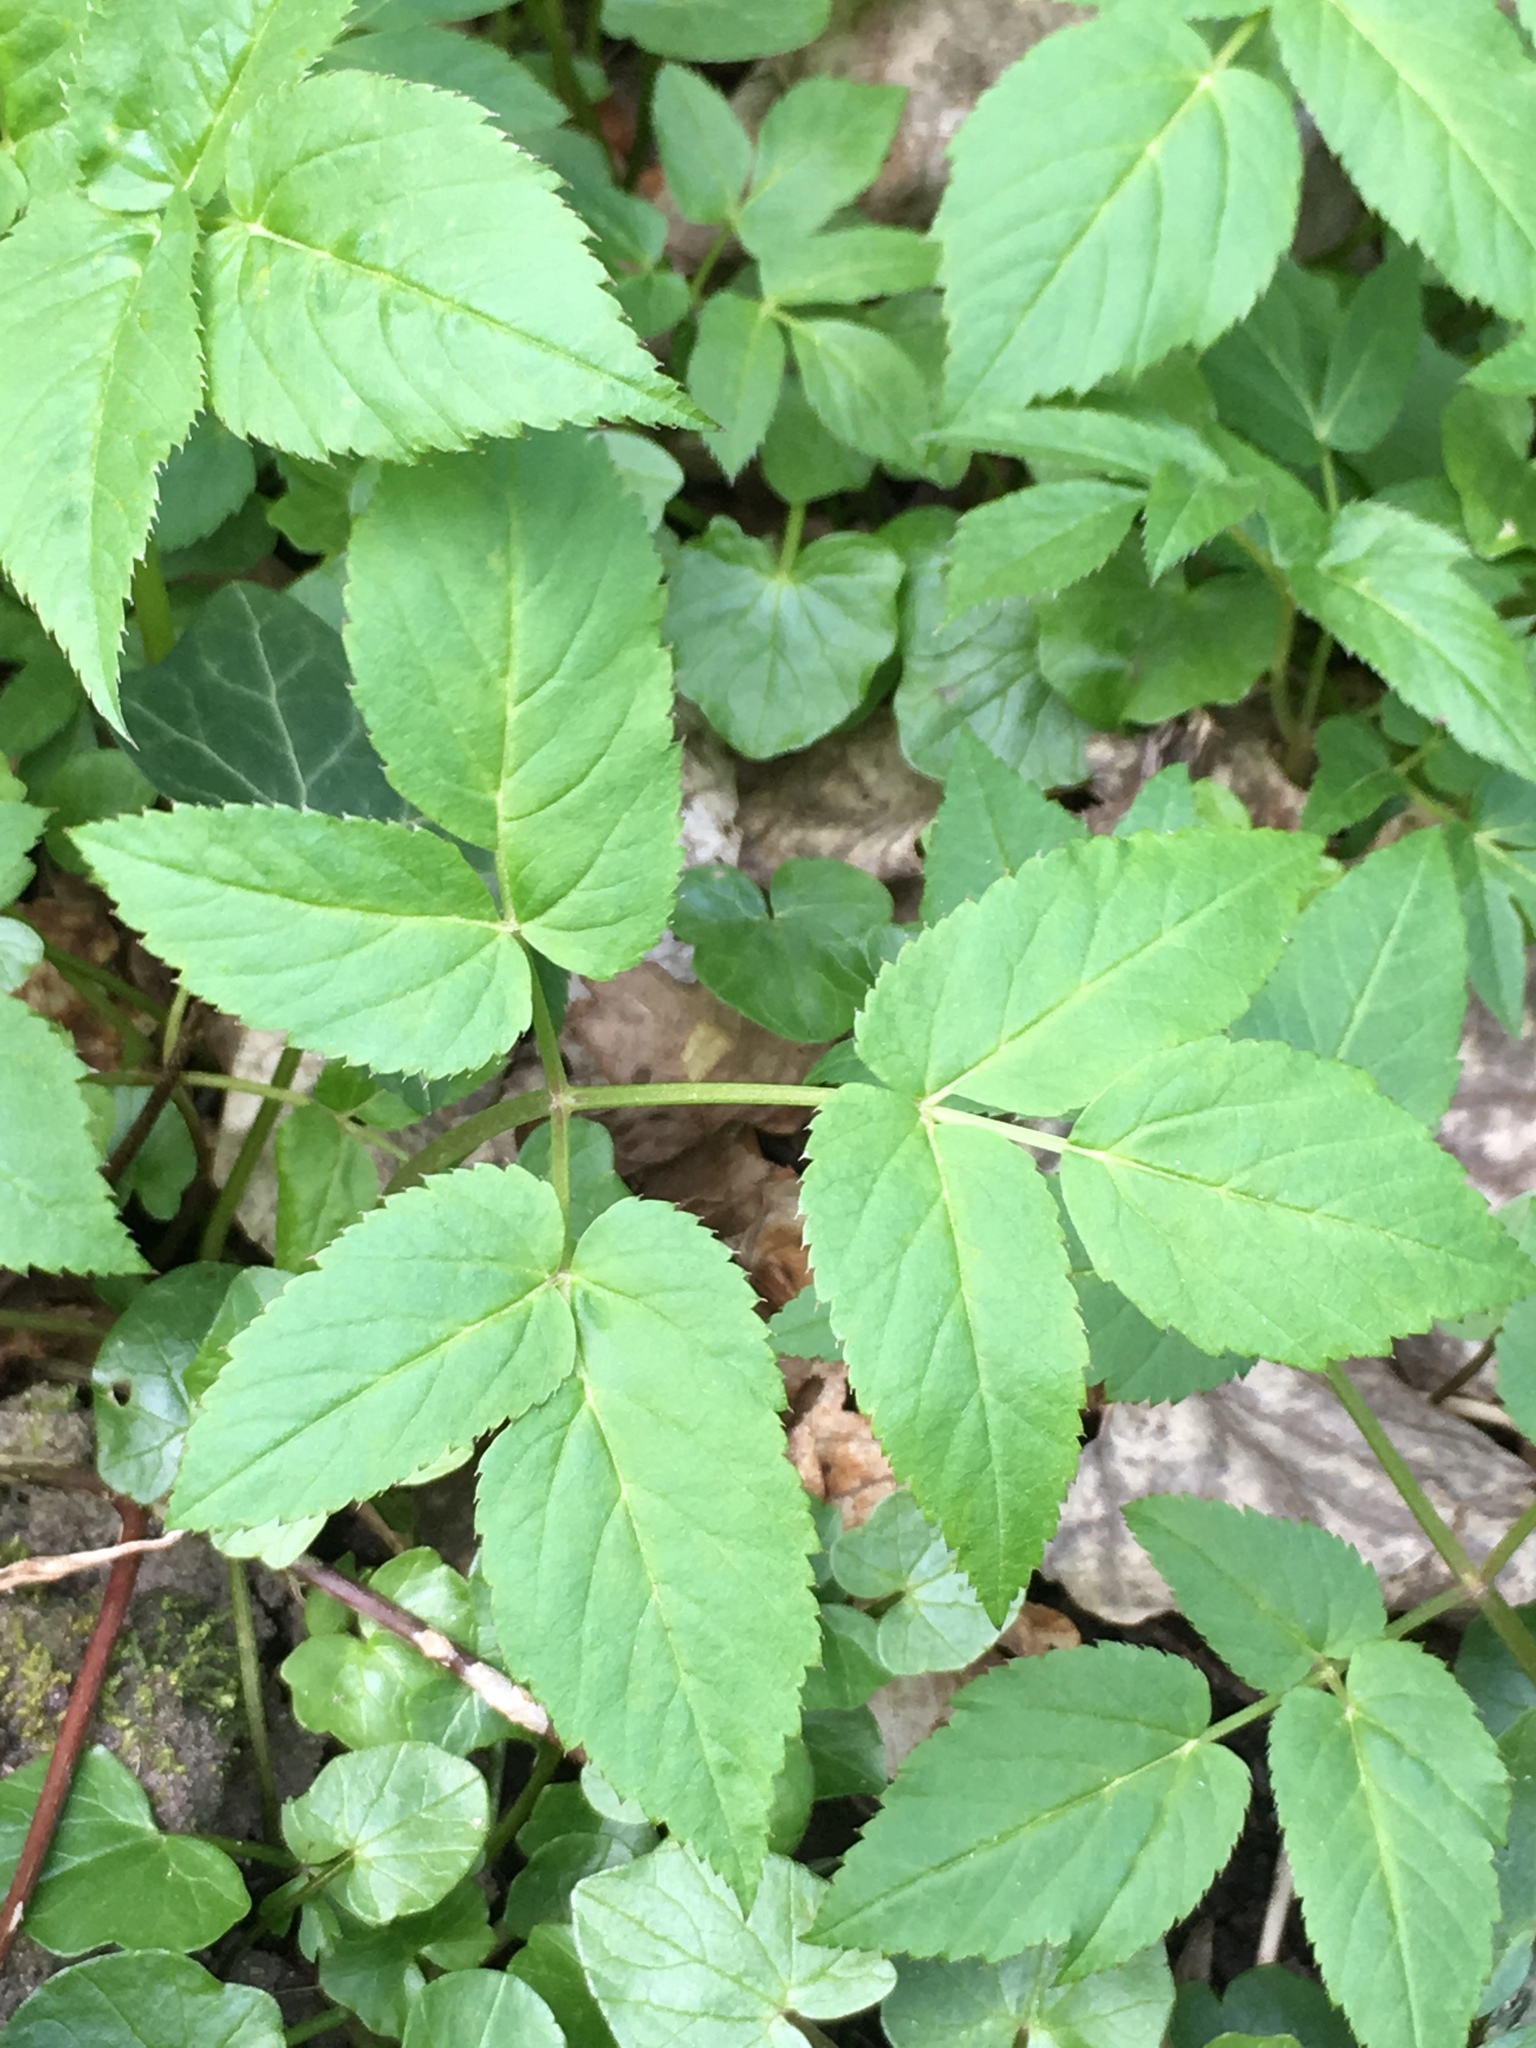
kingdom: Plantae
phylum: Tracheophyta
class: Magnoliopsida
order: Apiales
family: Apiaceae
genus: Aegopodium
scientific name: Aegopodium podagraria
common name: Ground-elder
